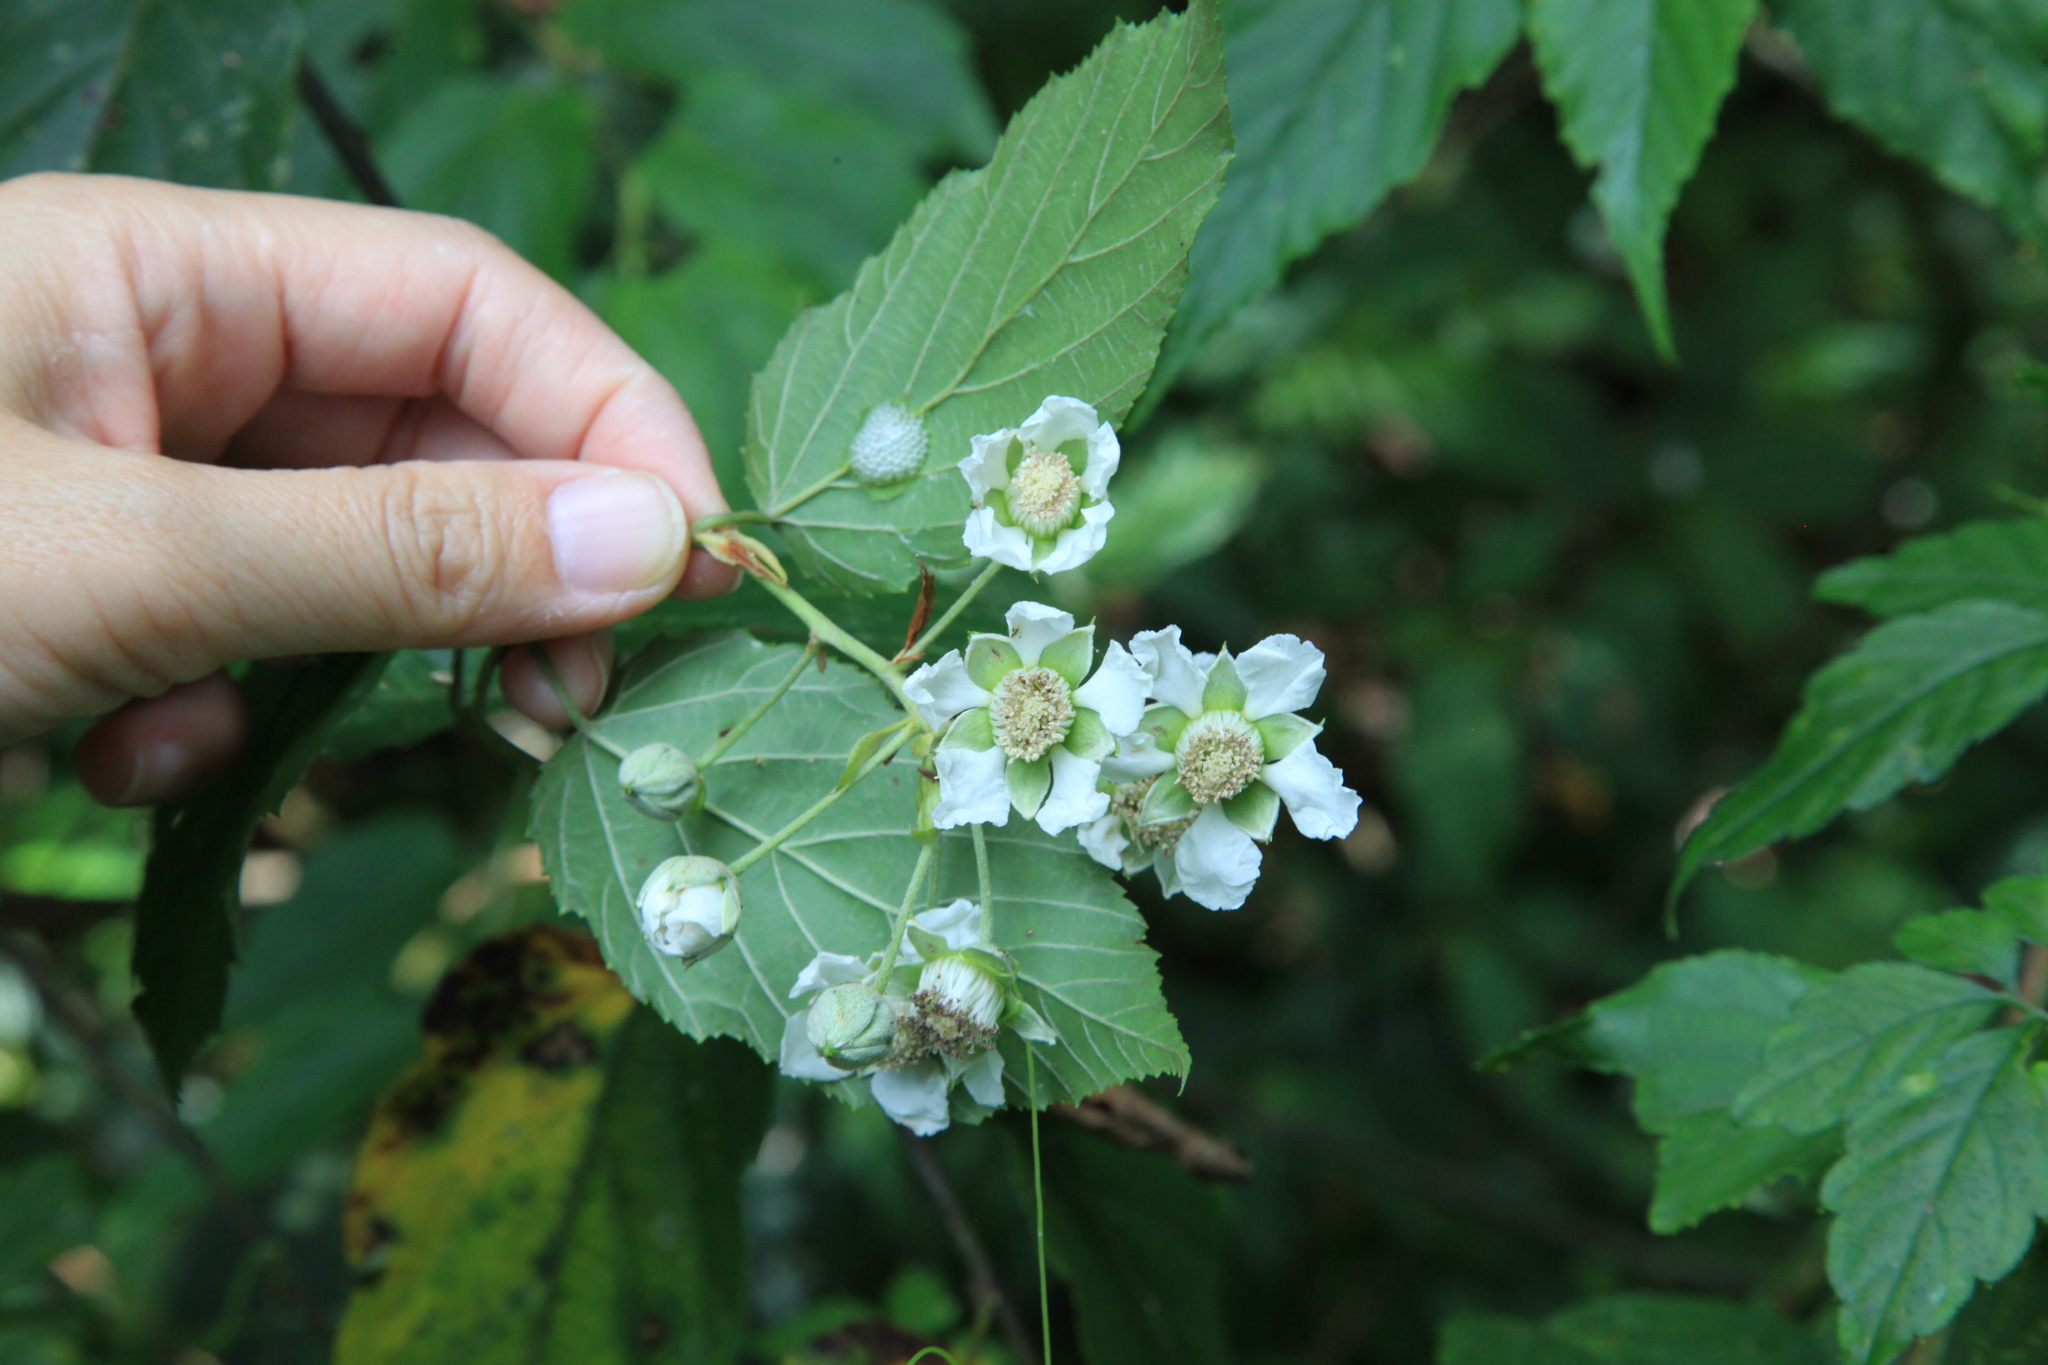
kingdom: Plantae
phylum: Tracheophyta
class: Magnoliopsida
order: Rosales
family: Rosaceae
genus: Rubus
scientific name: Rubus kawakamii
